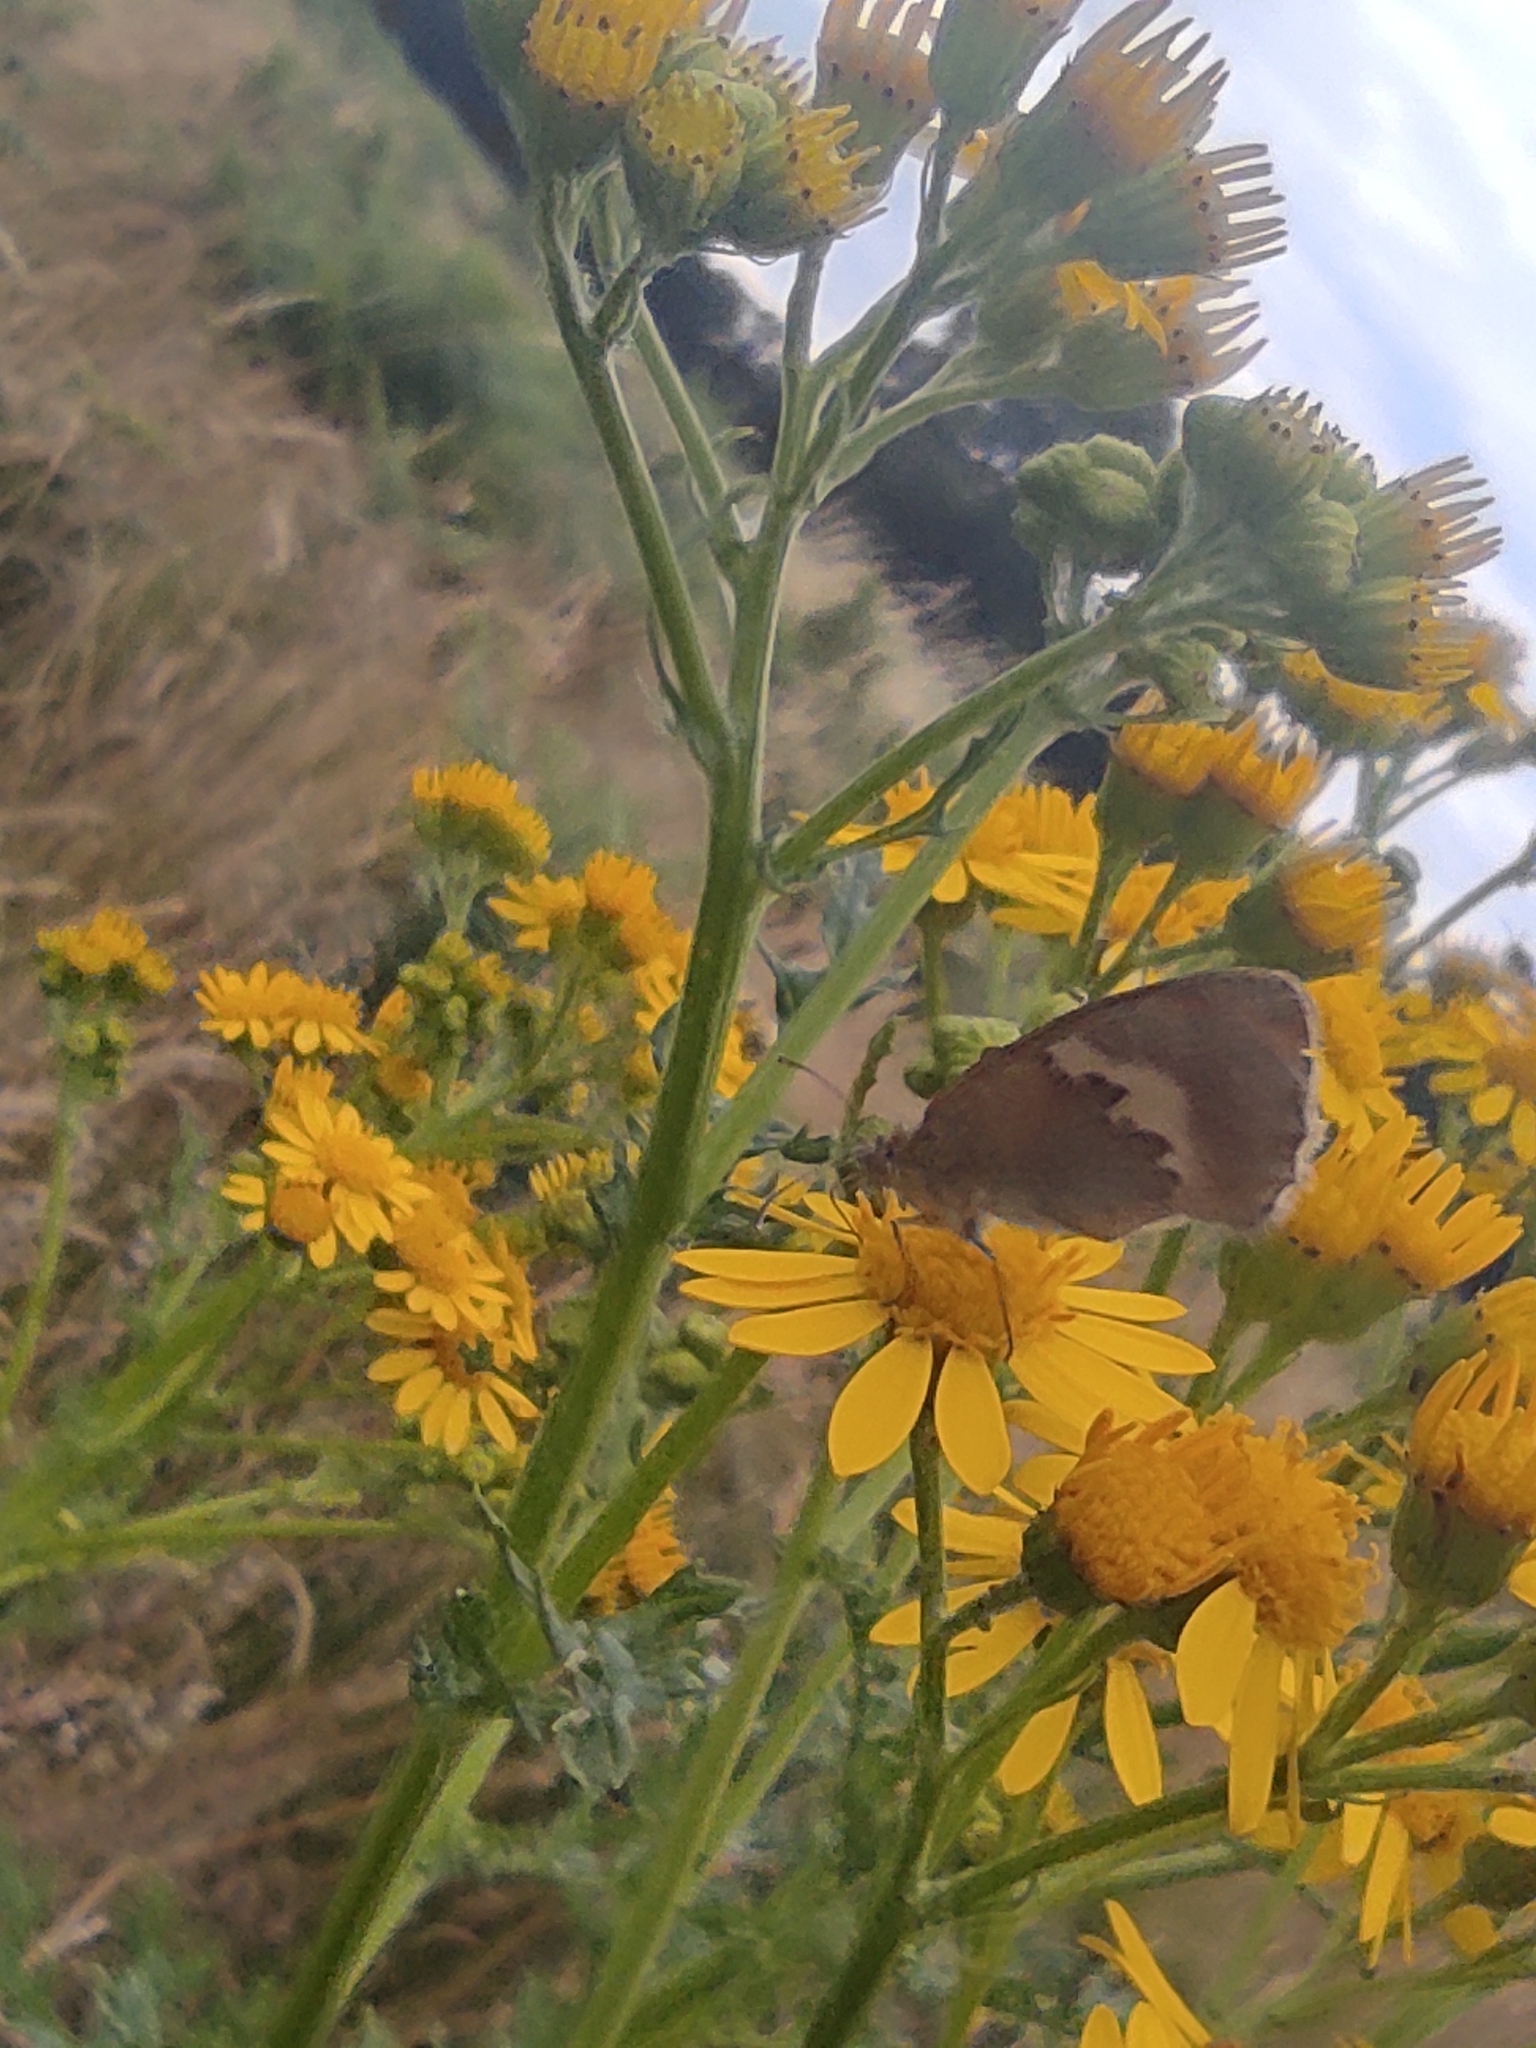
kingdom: Animalia
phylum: Arthropoda
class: Insecta
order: Lepidoptera
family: Nymphalidae
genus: Pyronia
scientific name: Pyronia tithonus
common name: Gatekeeper
